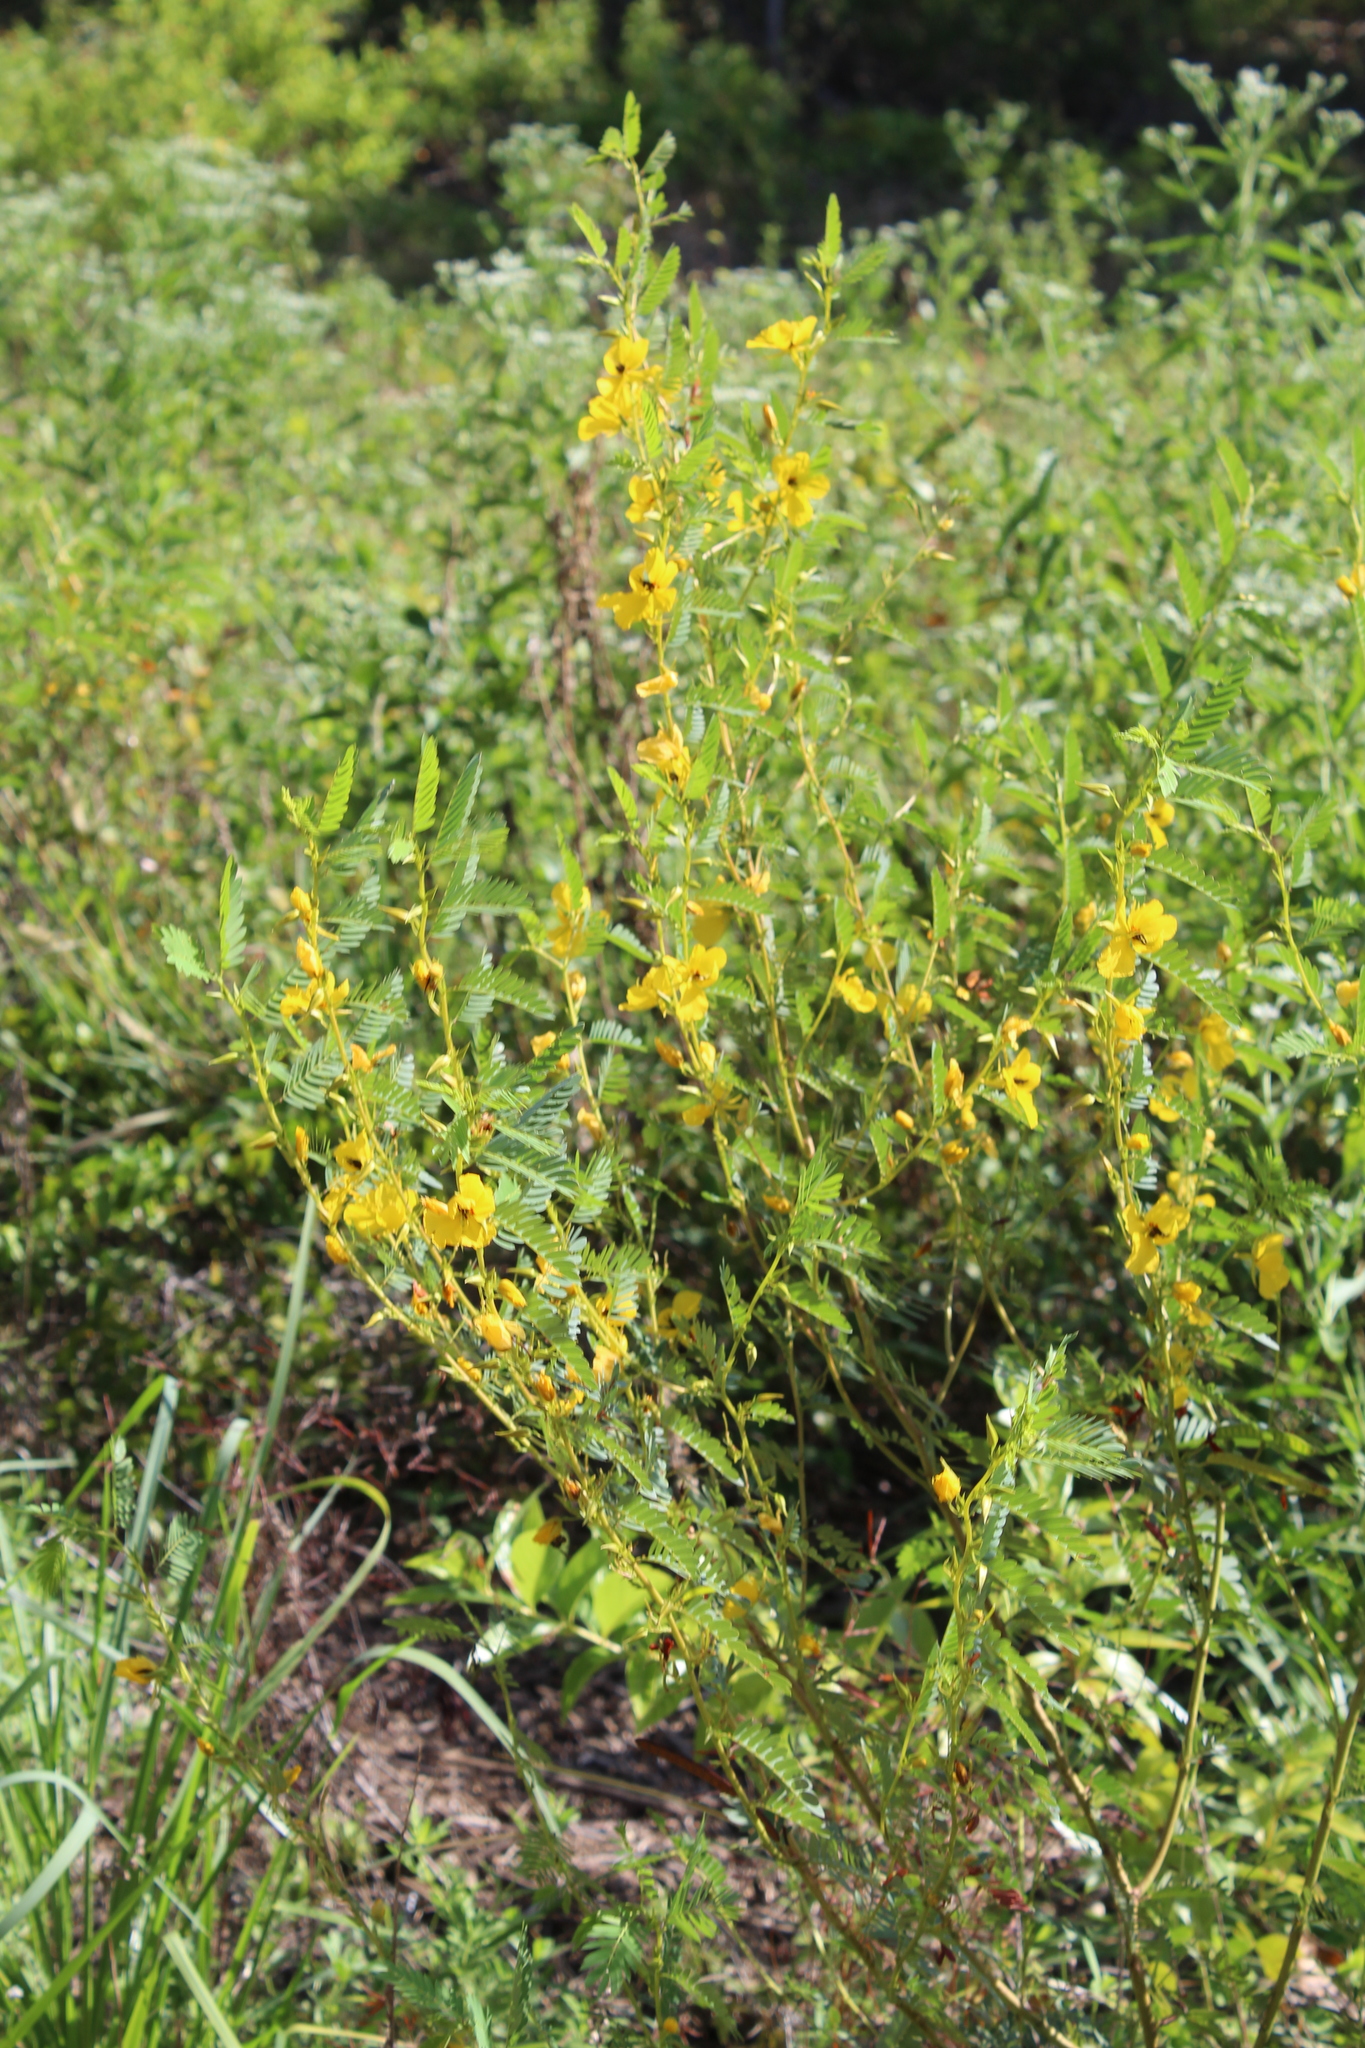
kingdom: Plantae
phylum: Tracheophyta
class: Magnoliopsida
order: Fabales
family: Fabaceae
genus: Chamaecrista
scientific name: Chamaecrista fasciculata
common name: Golden cassia
